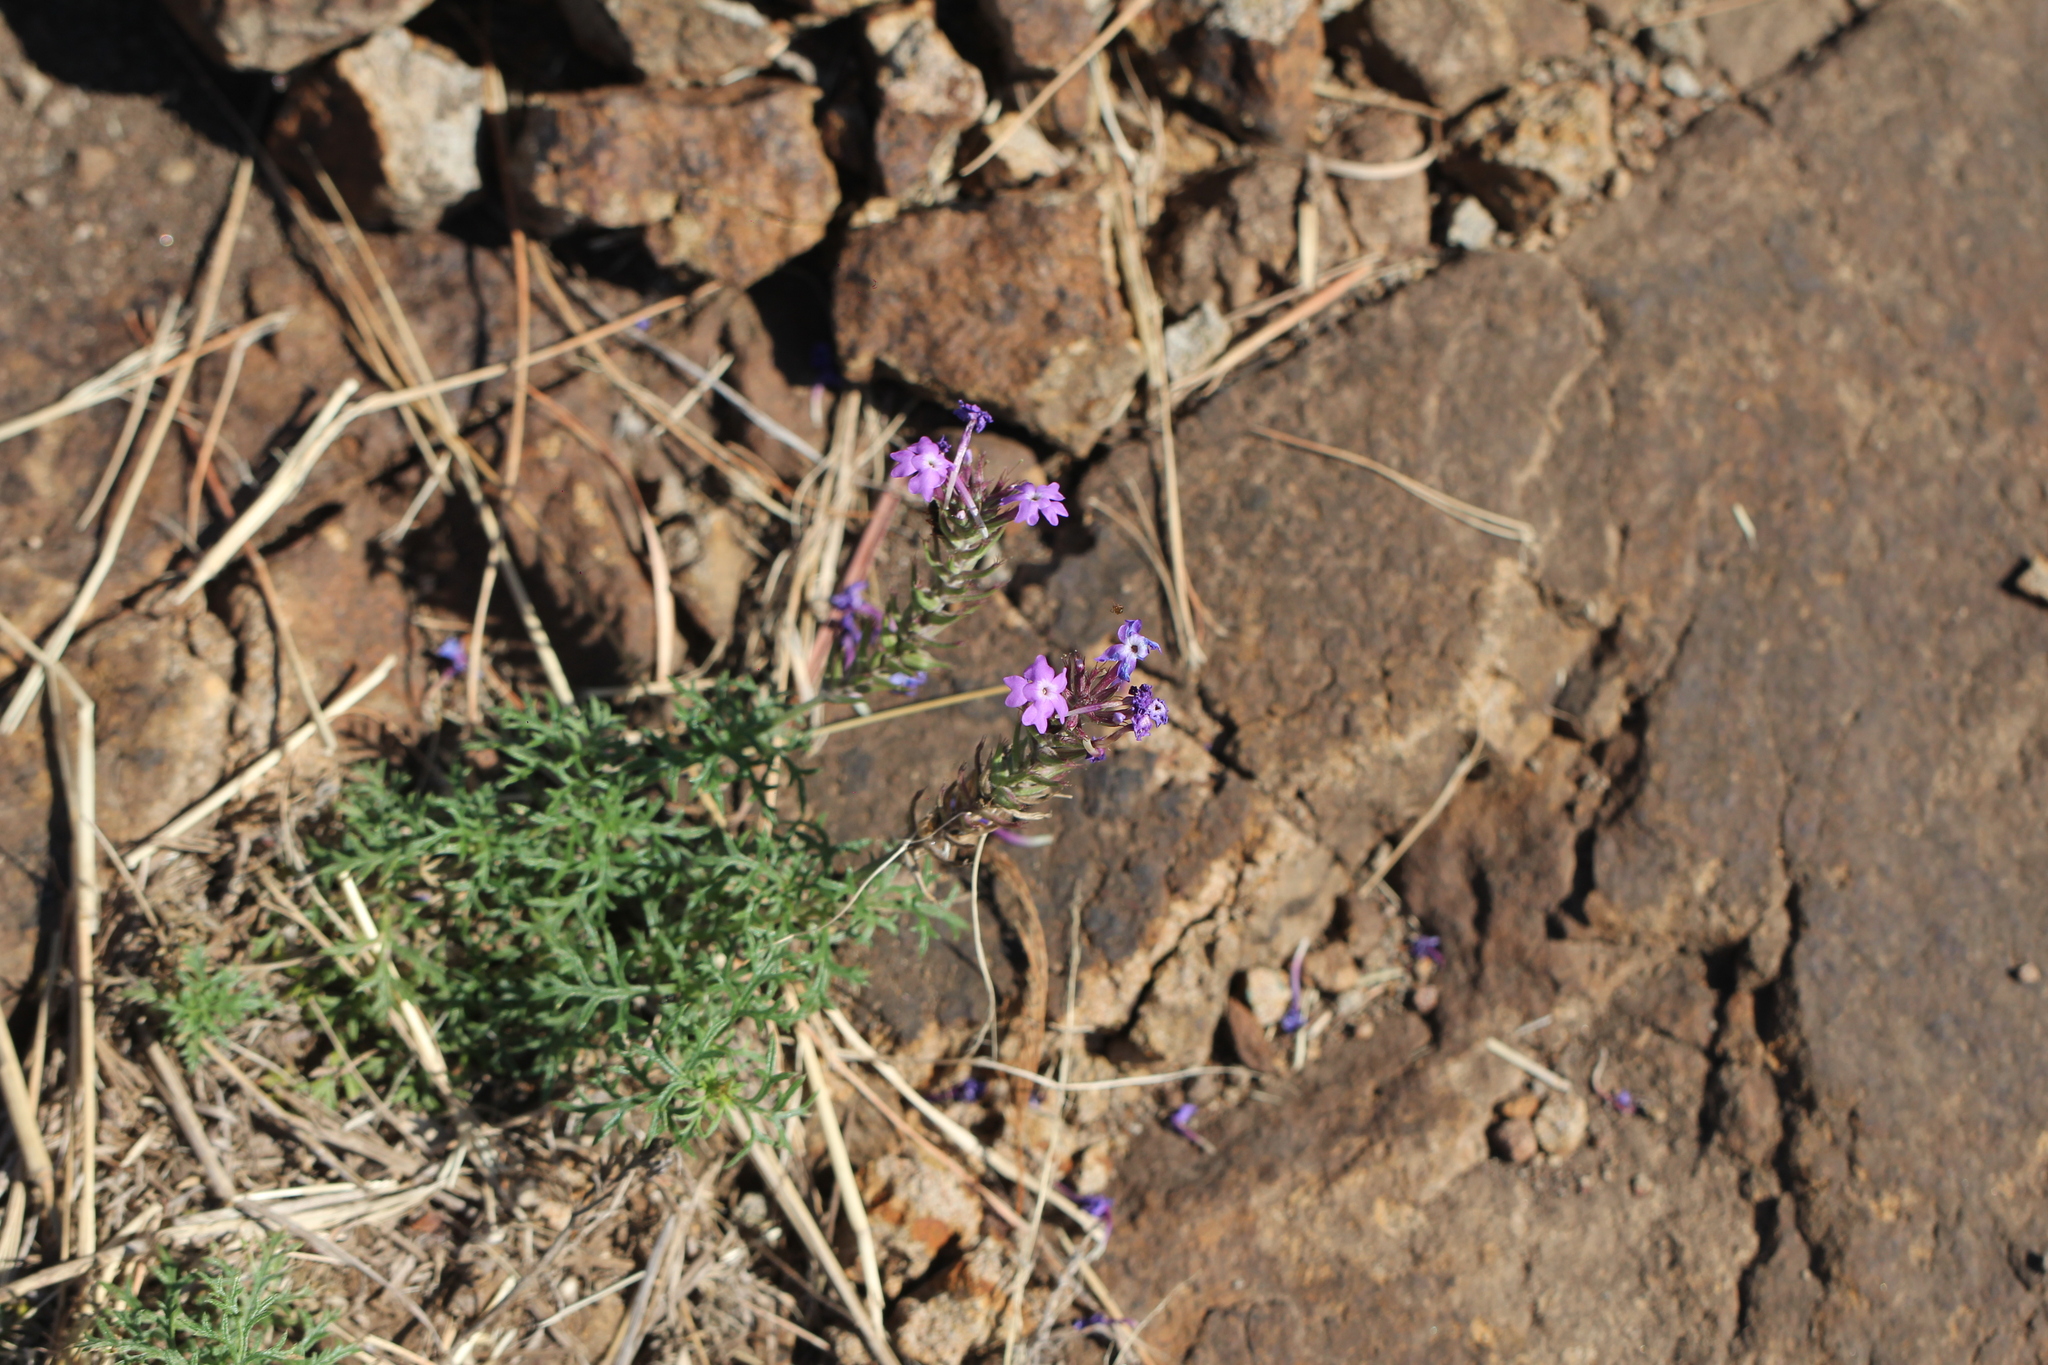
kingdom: Plantae
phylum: Tracheophyta
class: Magnoliopsida
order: Lamiales
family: Verbenaceae
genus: Verbena
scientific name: Verbena tenera
